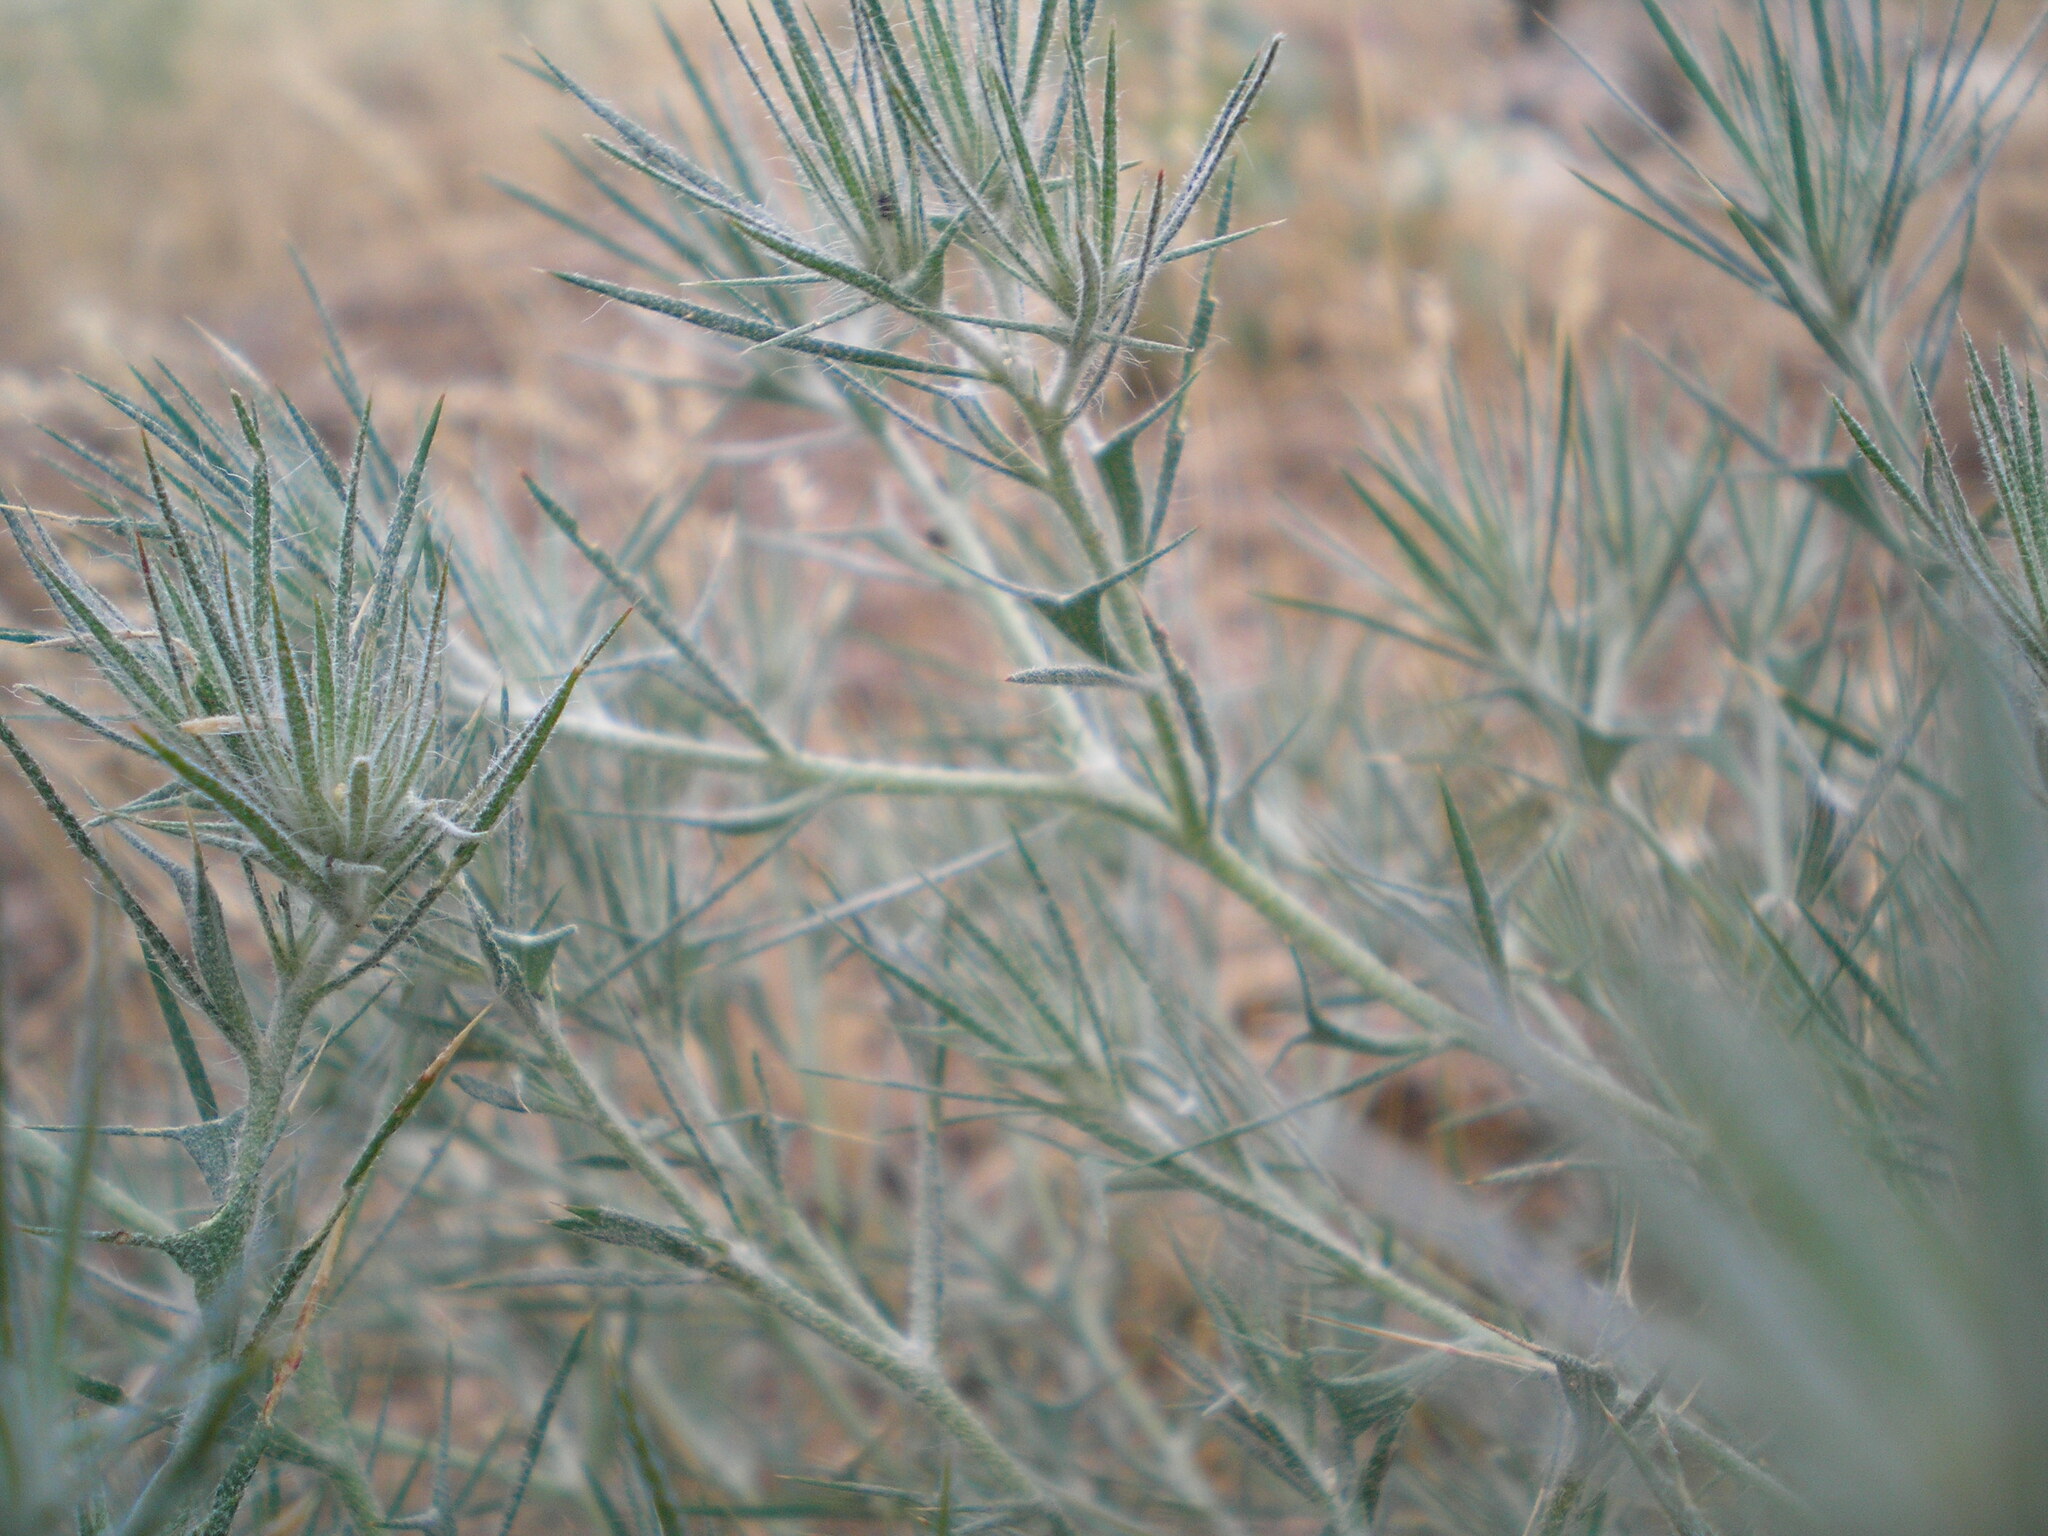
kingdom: Plantae
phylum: Tracheophyta
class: Magnoliopsida
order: Caryophyllales
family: Amaranthaceae
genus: Ceratocarpus
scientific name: Ceratocarpus arenarius
